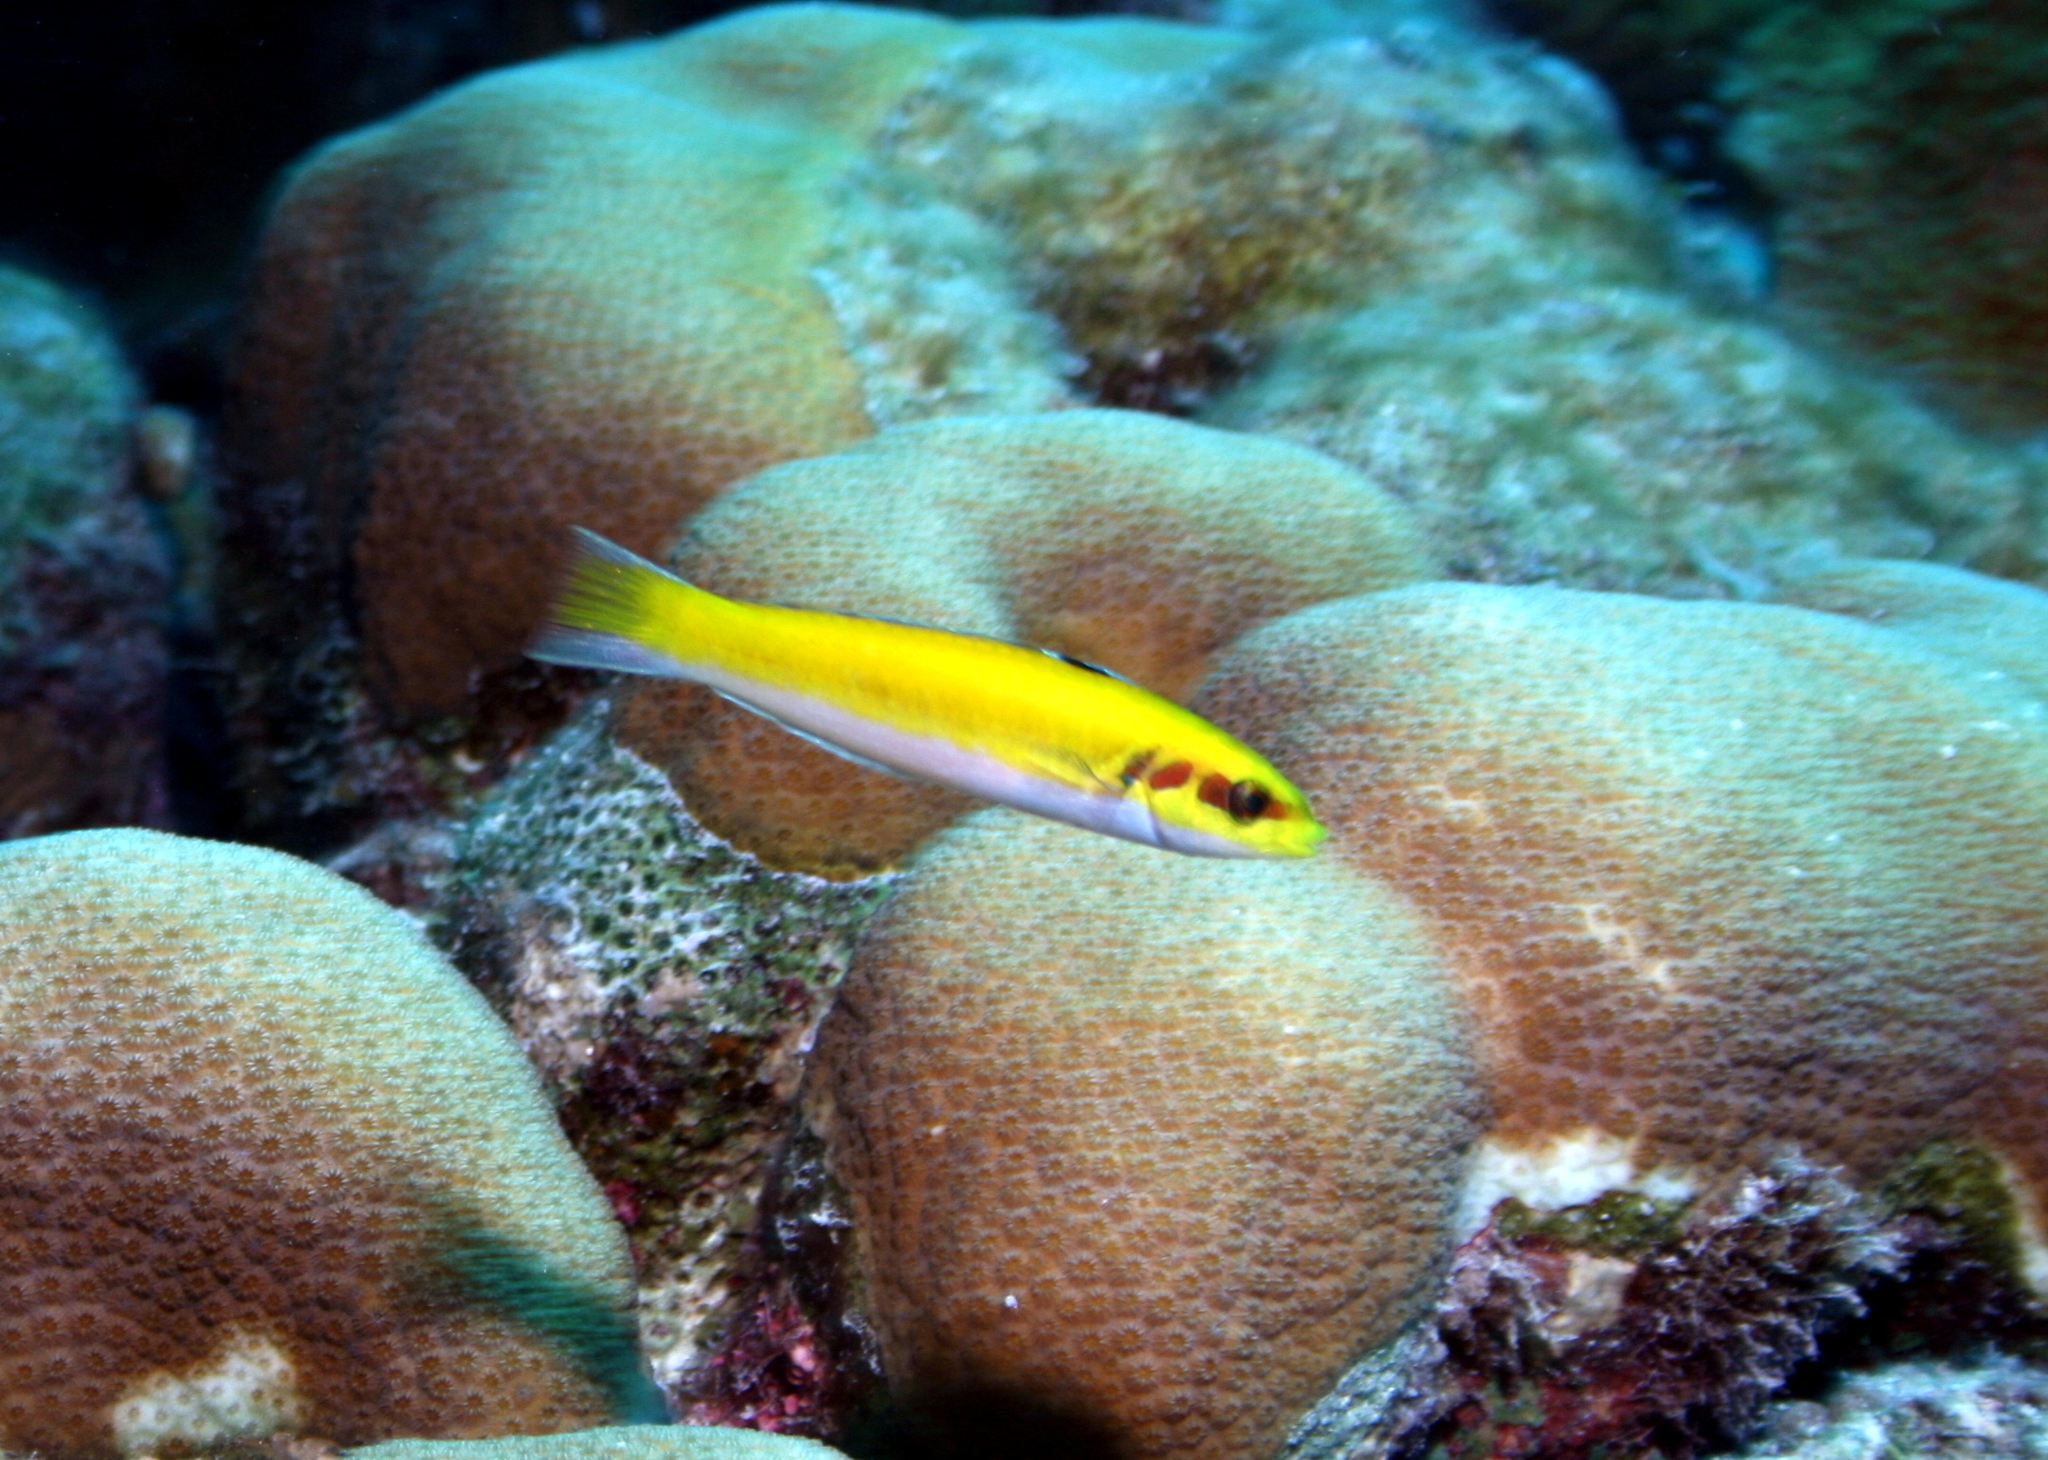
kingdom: Animalia
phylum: Chordata
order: Perciformes
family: Labridae
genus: Thalassoma
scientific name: Thalassoma bifasciatum
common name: Bluehead wrasse
